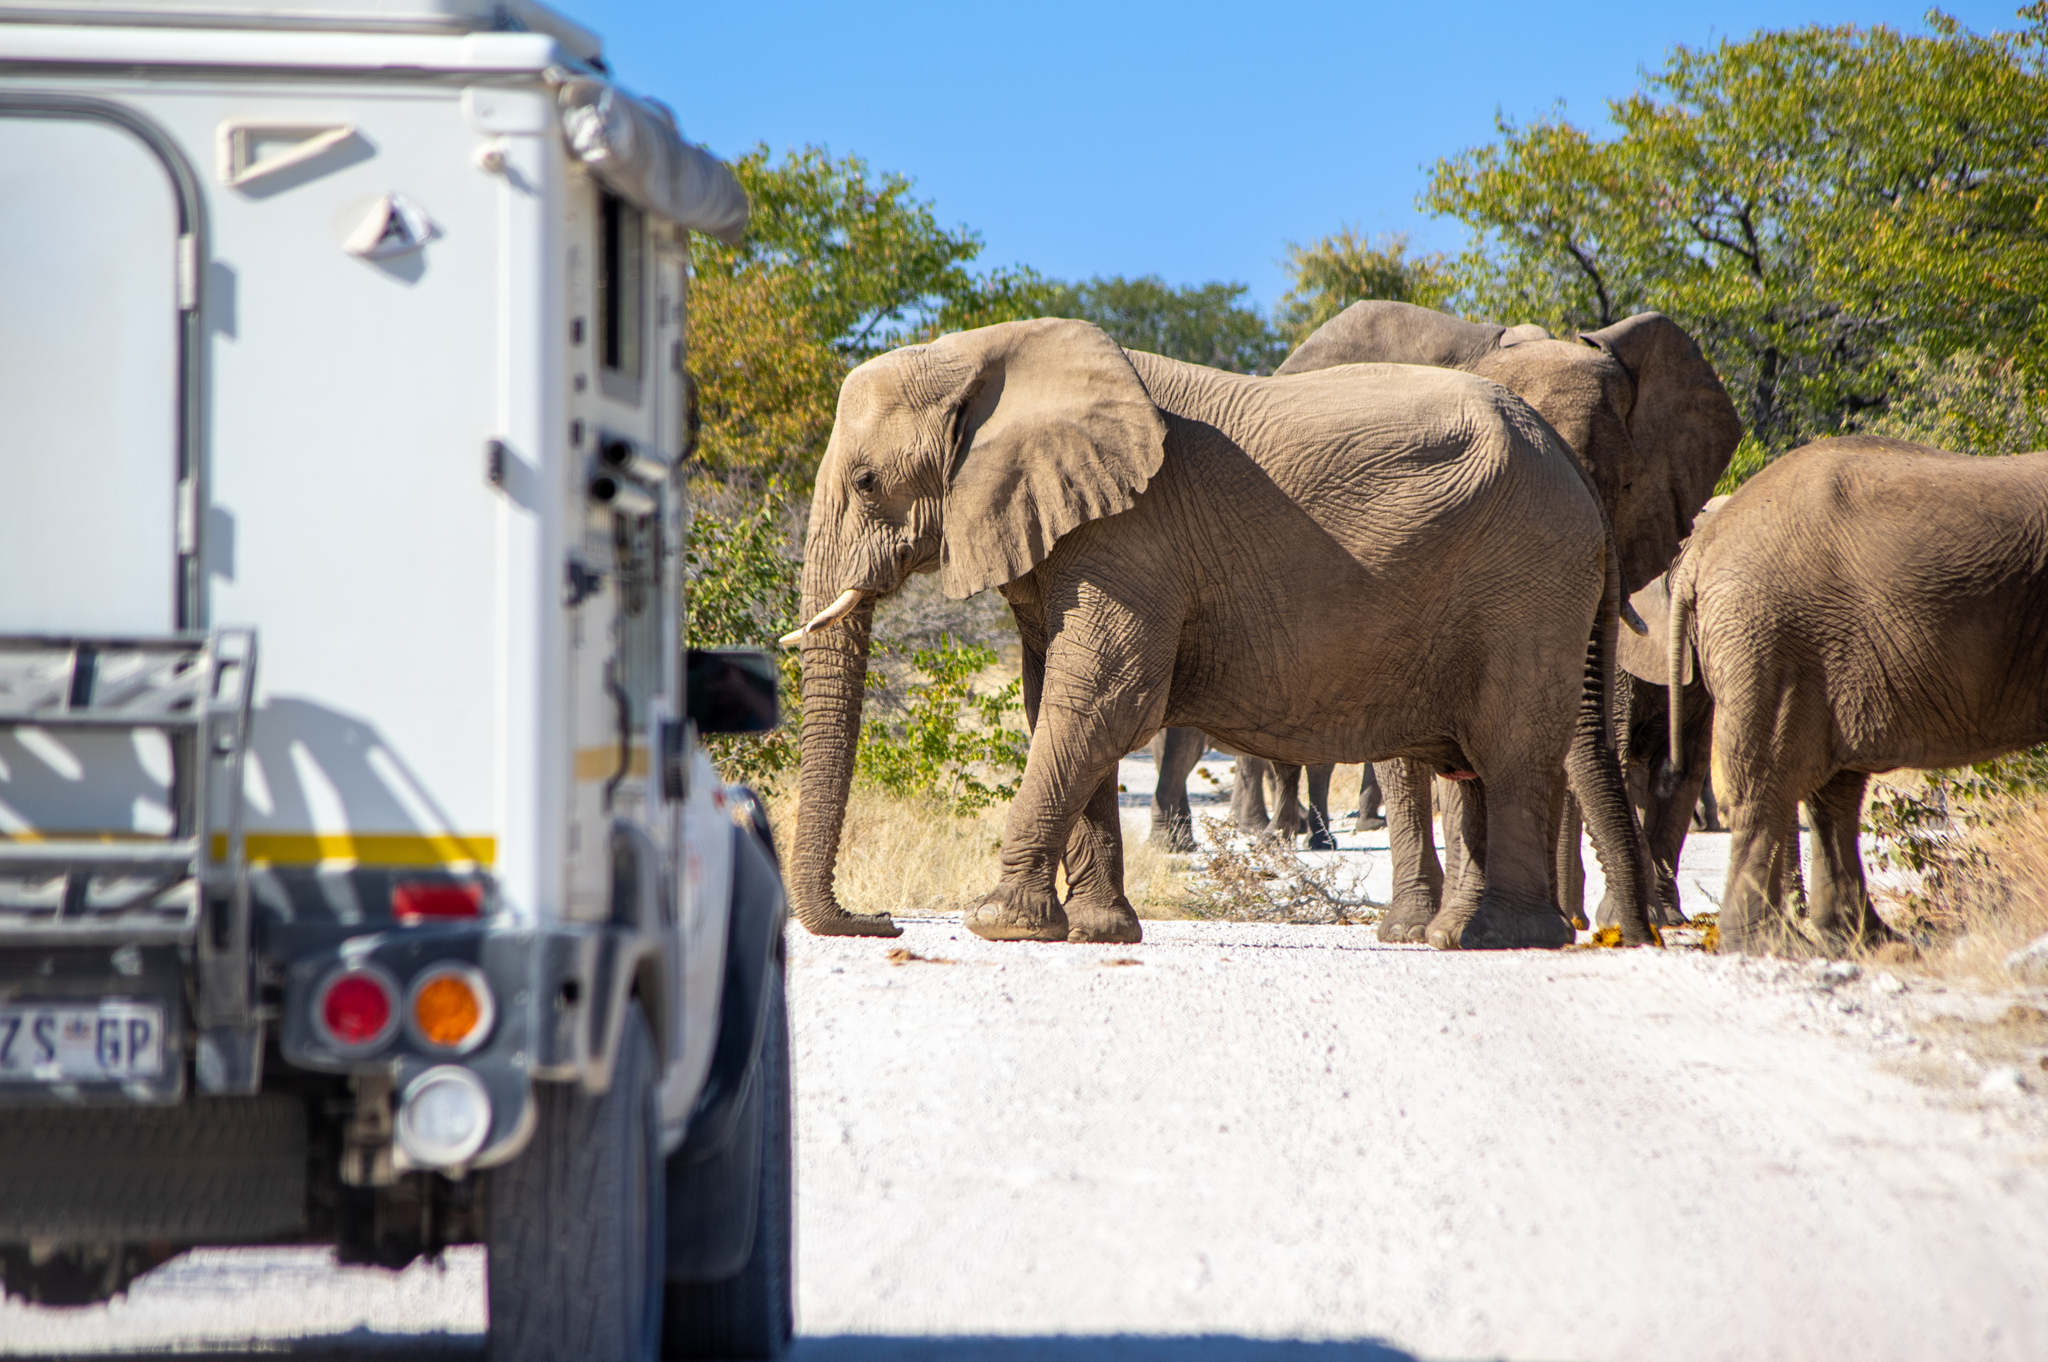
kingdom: Animalia
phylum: Chordata
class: Mammalia
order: Proboscidea
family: Elephantidae
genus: Loxodonta
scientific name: Loxodonta africana
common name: African elephant
